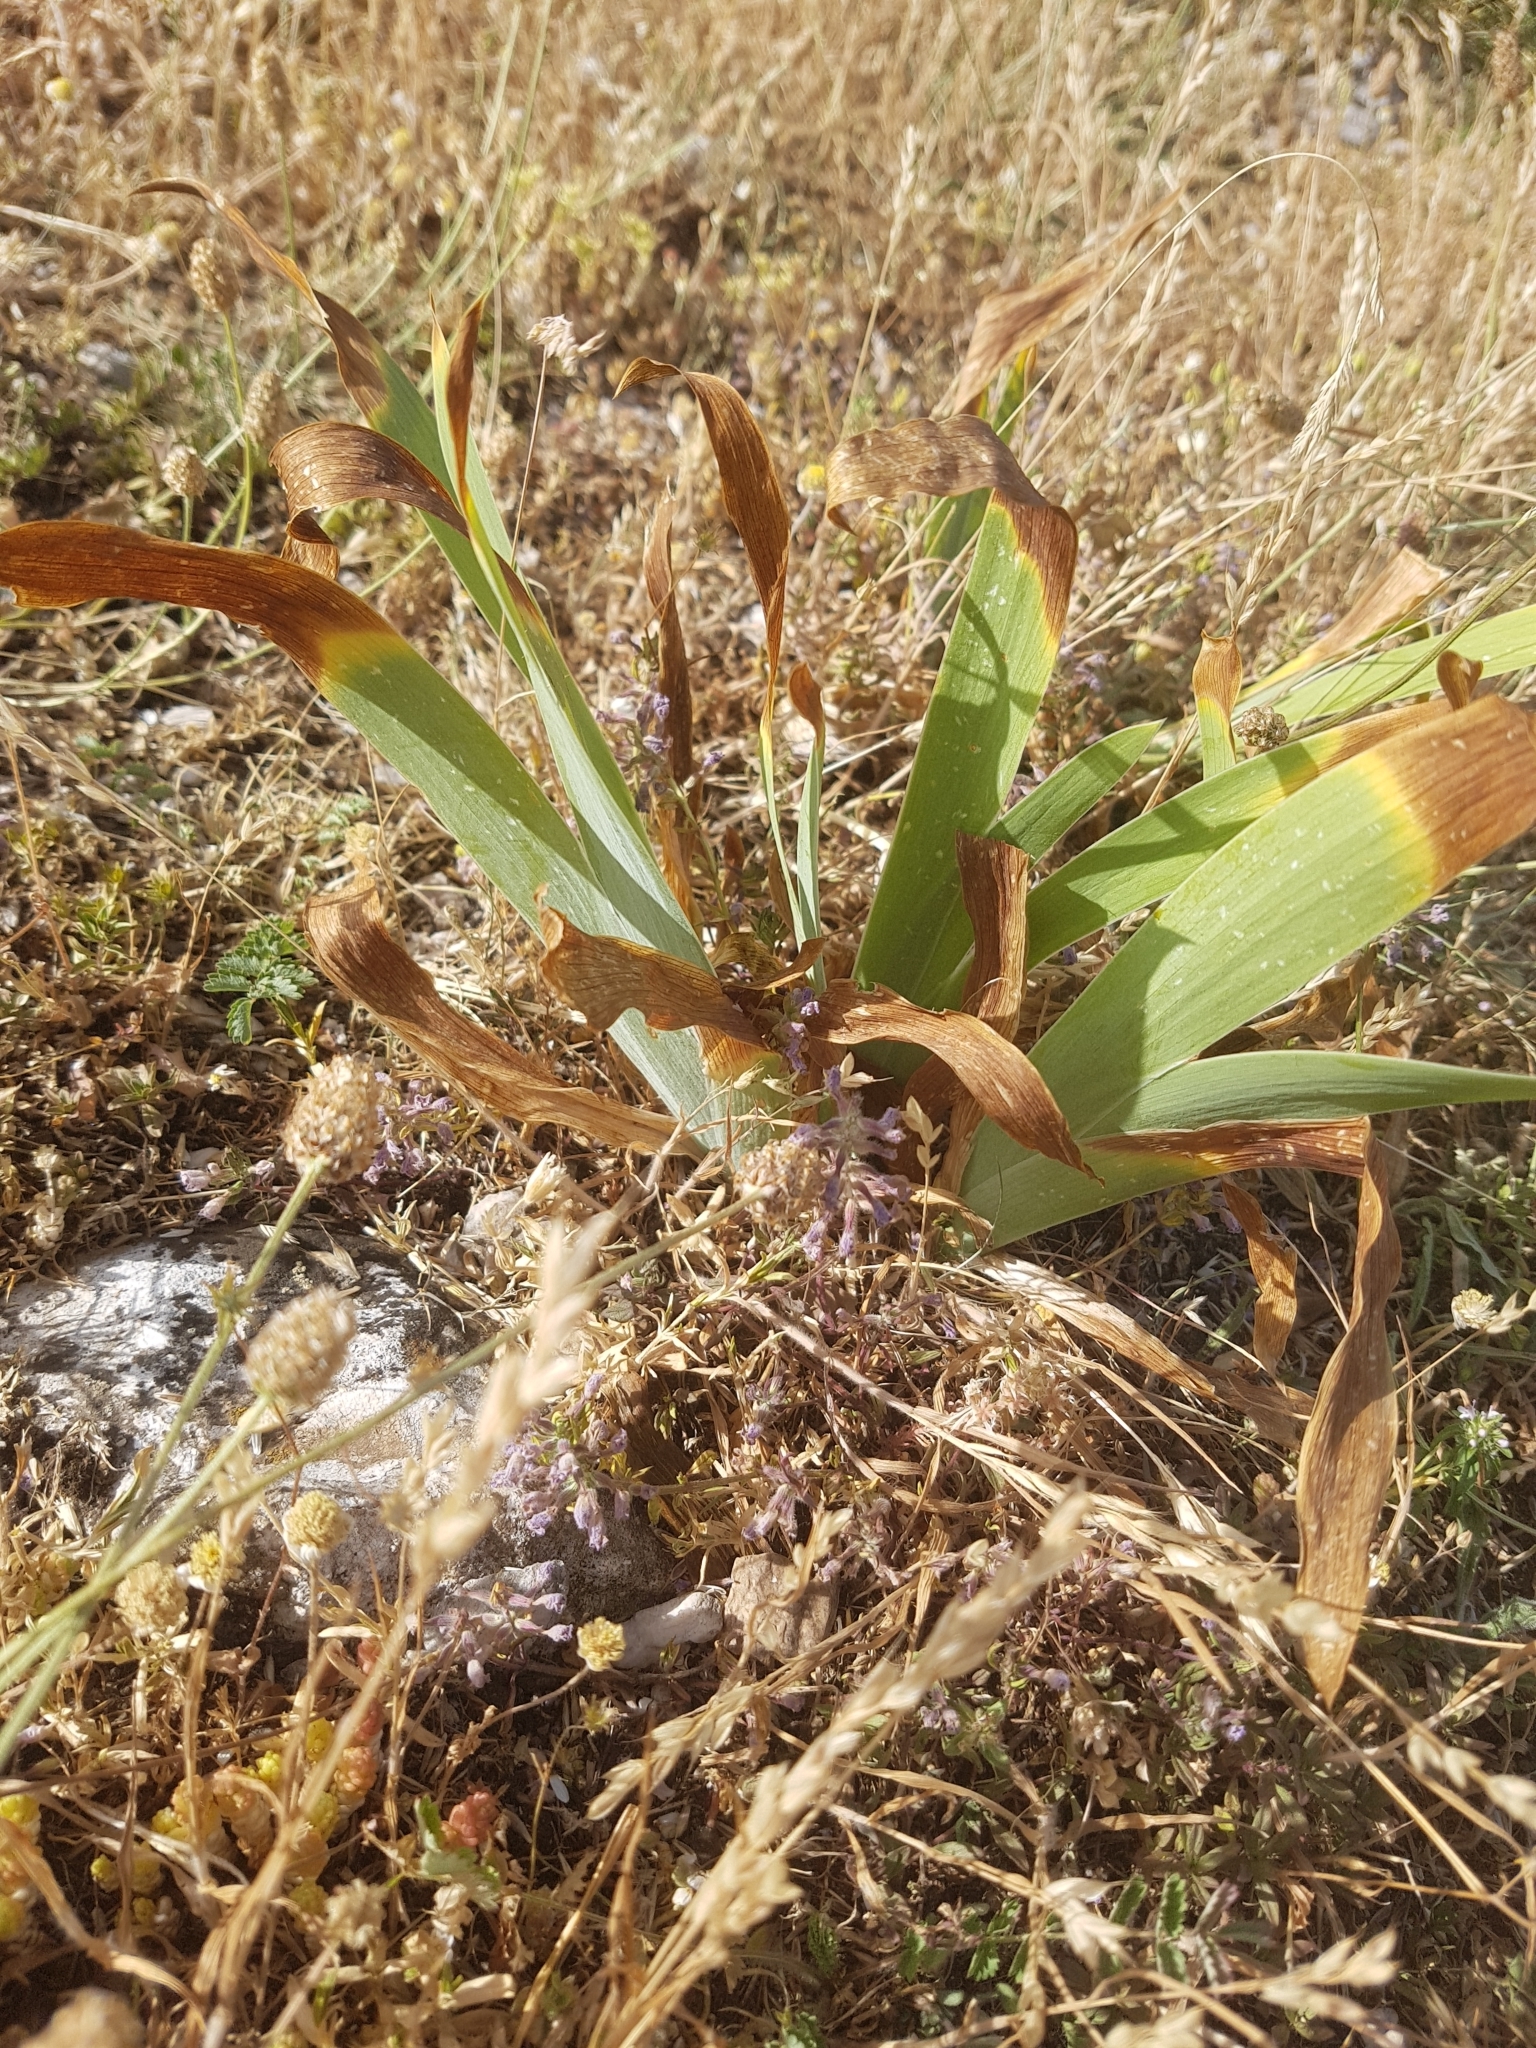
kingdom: Plantae
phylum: Tracheophyta
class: Liliopsida
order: Asparagales
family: Iridaceae
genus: Iris
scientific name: Iris sabina
